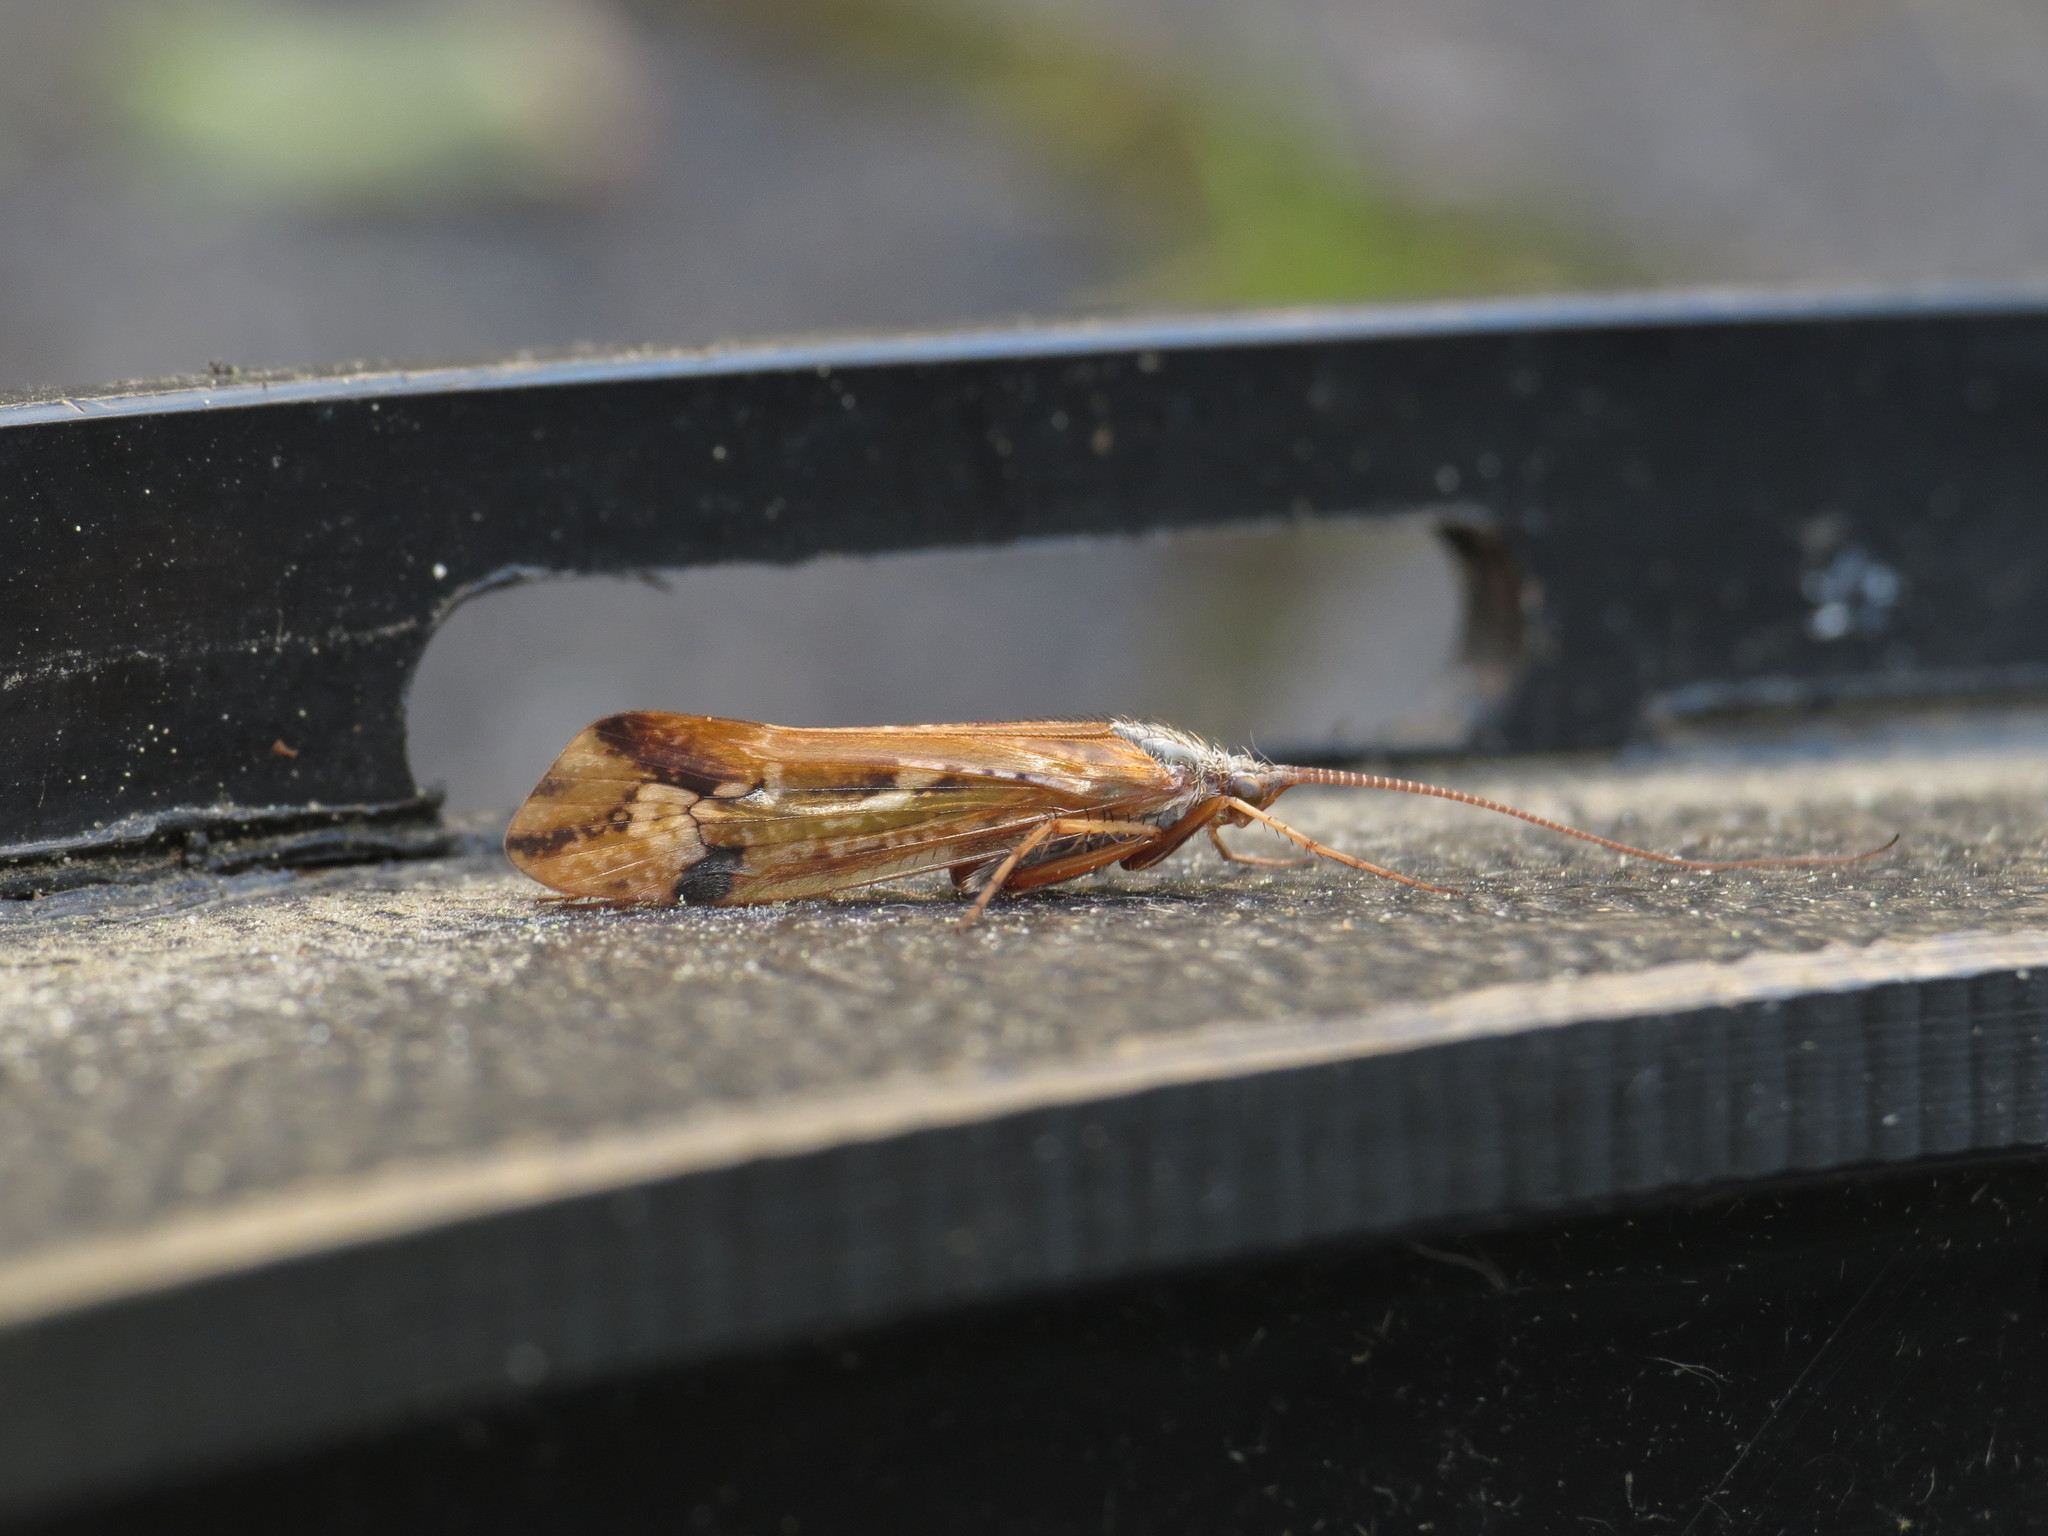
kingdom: Animalia
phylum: Arthropoda
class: Insecta
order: Trichoptera
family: Limnephilidae
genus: Limnephilus
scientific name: Limnephilus binotatus
